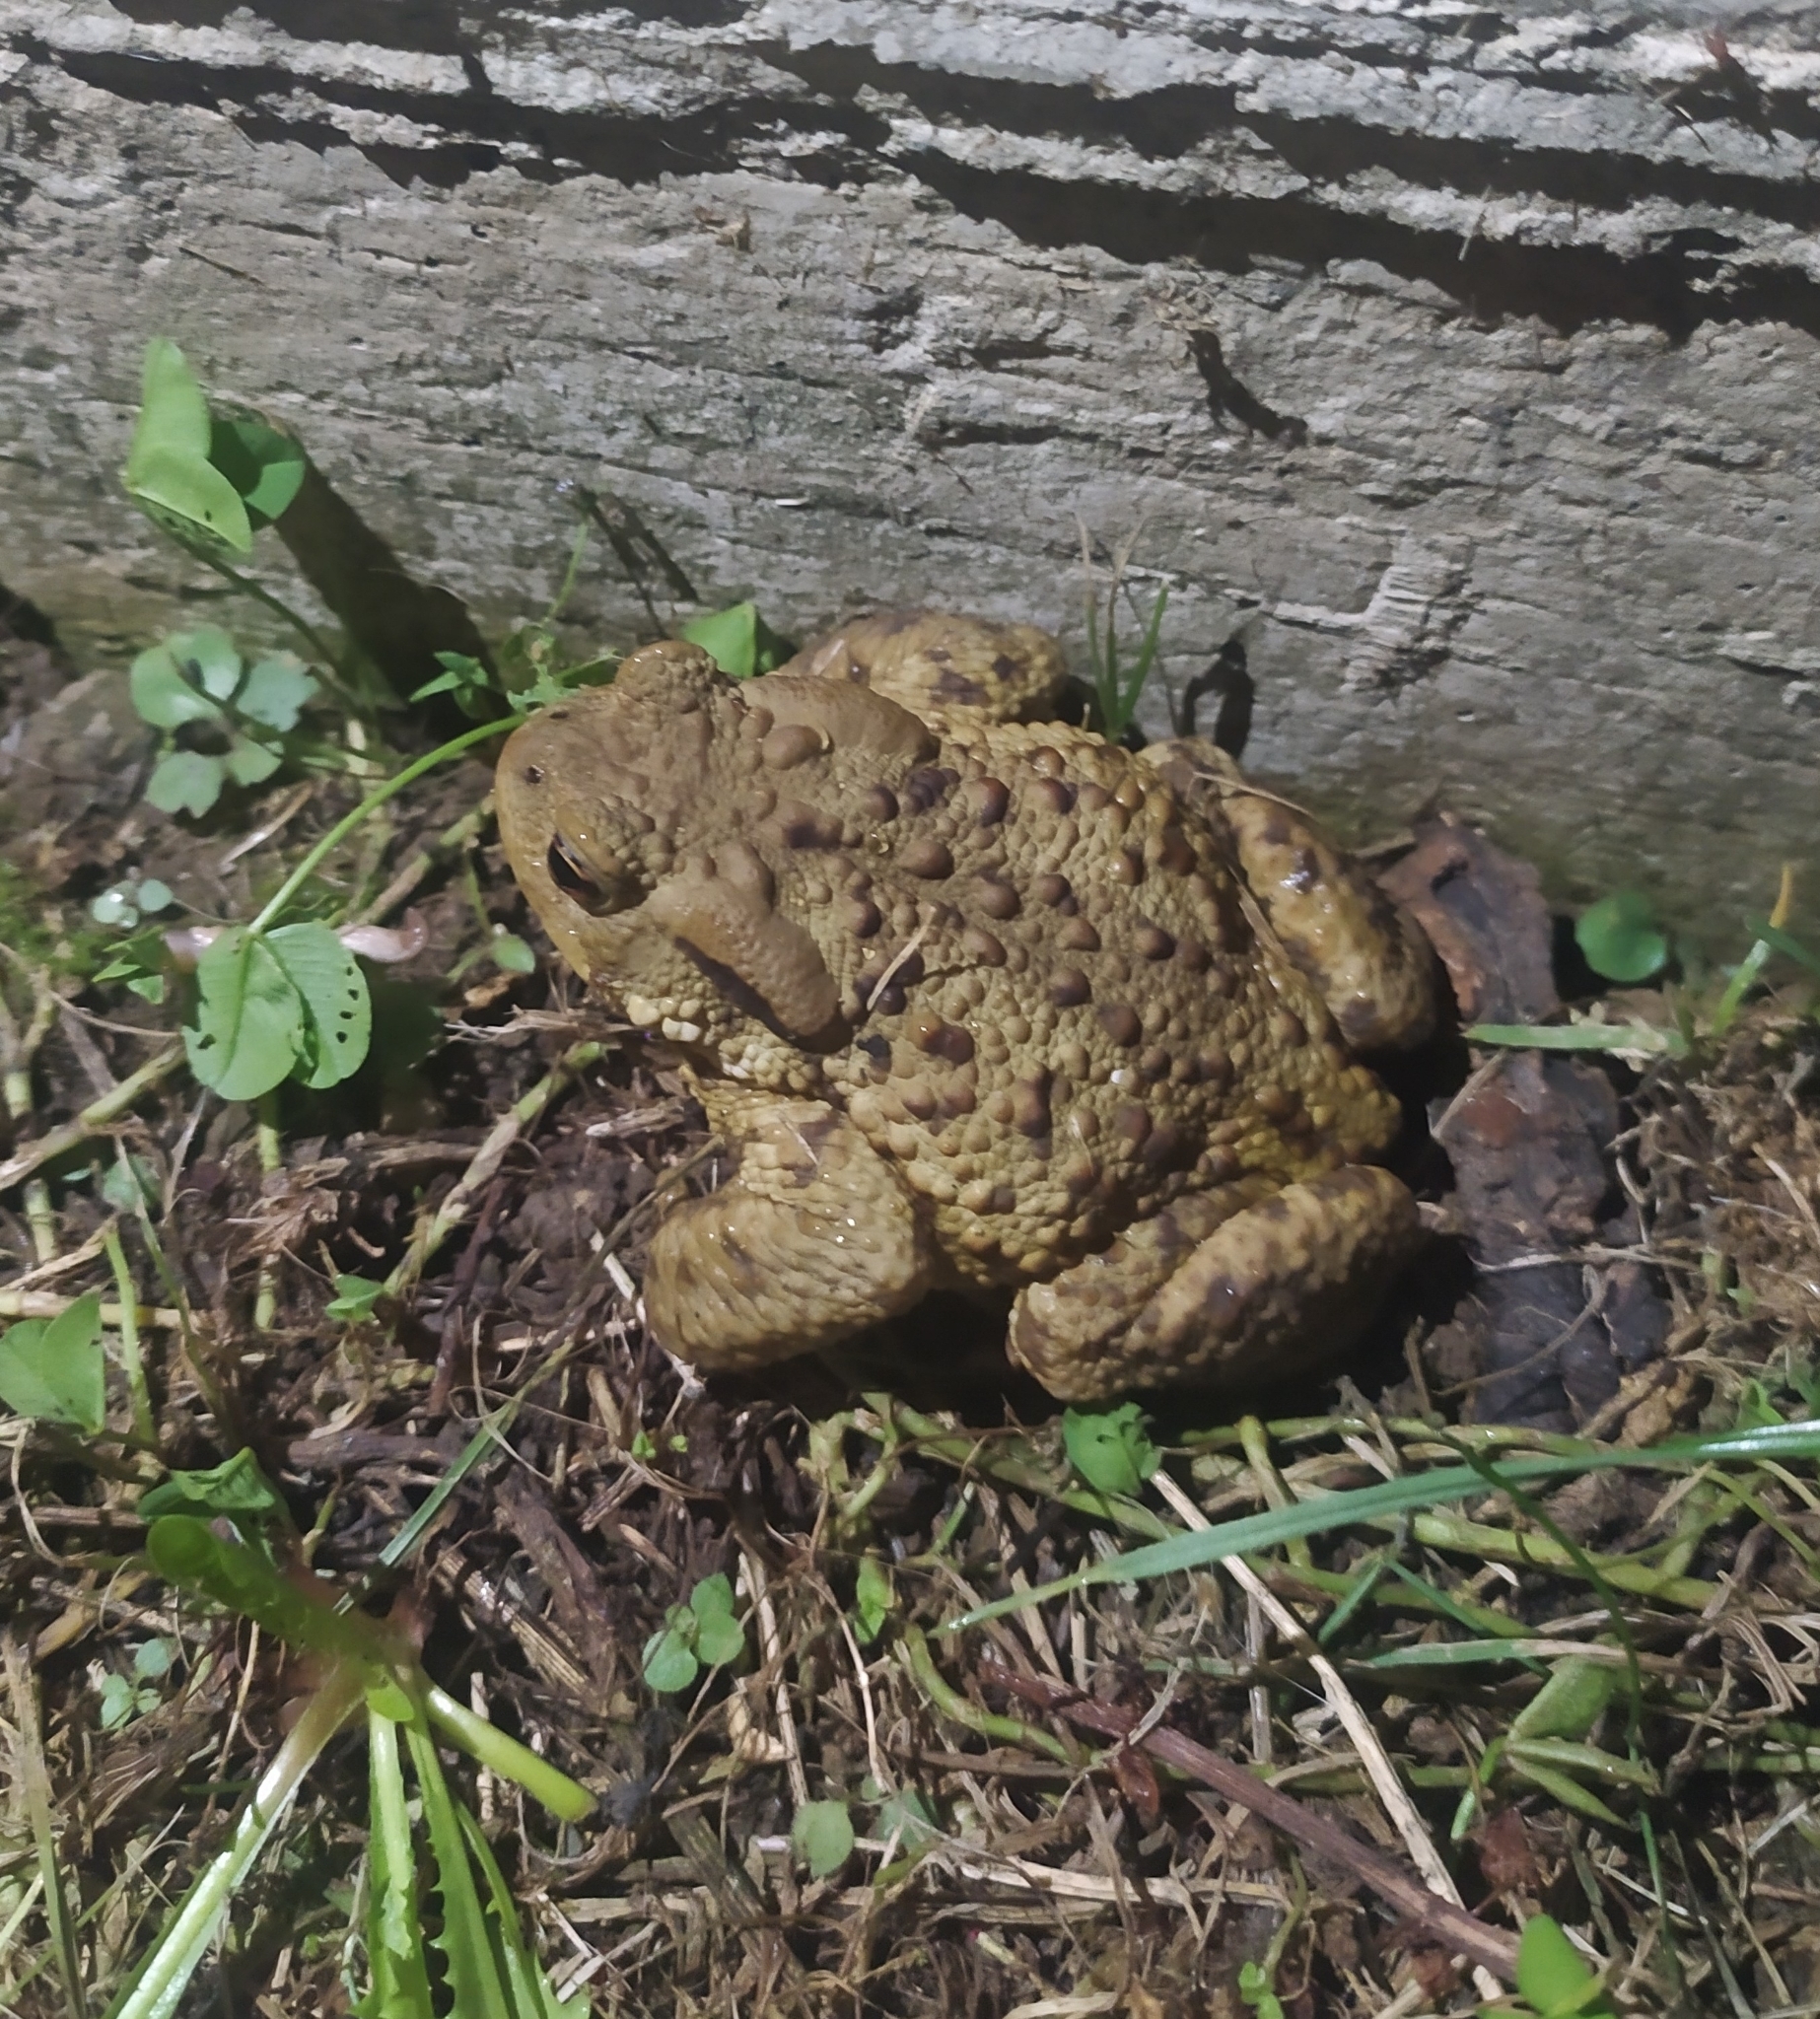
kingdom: Animalia
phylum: Chordata
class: Amphibia
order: Anura
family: Bufonidae
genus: Bufo
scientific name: Bufo bufo
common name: Common toad
